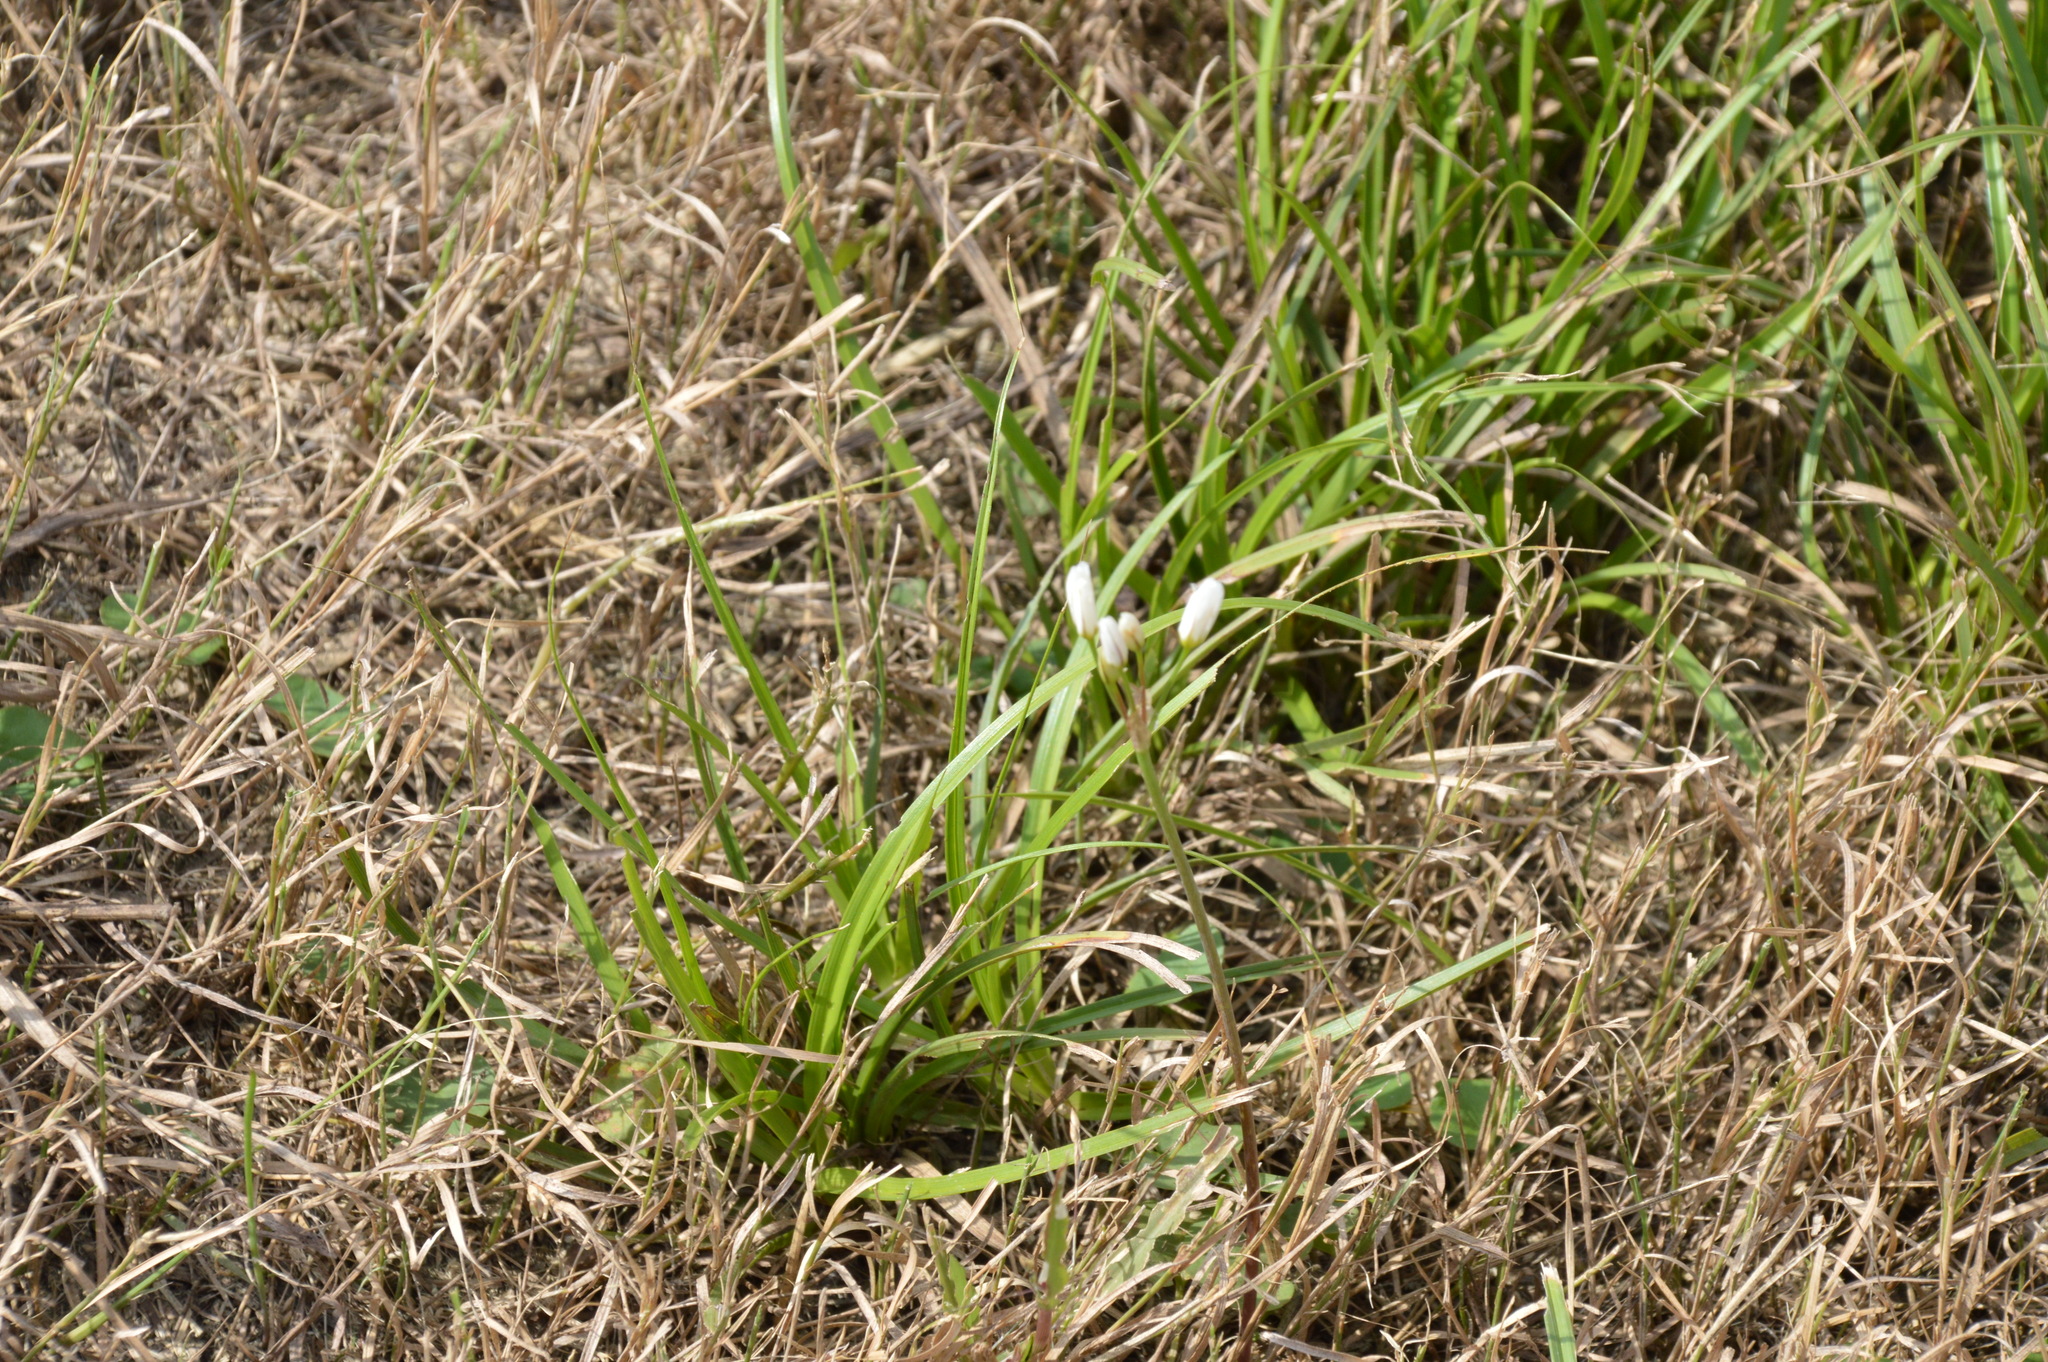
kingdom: Plantae
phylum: Tracheophyta
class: Liliopsida
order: Asparagales
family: Amaryllidaceae
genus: Nothoscordum
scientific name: Nothoscordum bivalve
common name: Crow-poison
